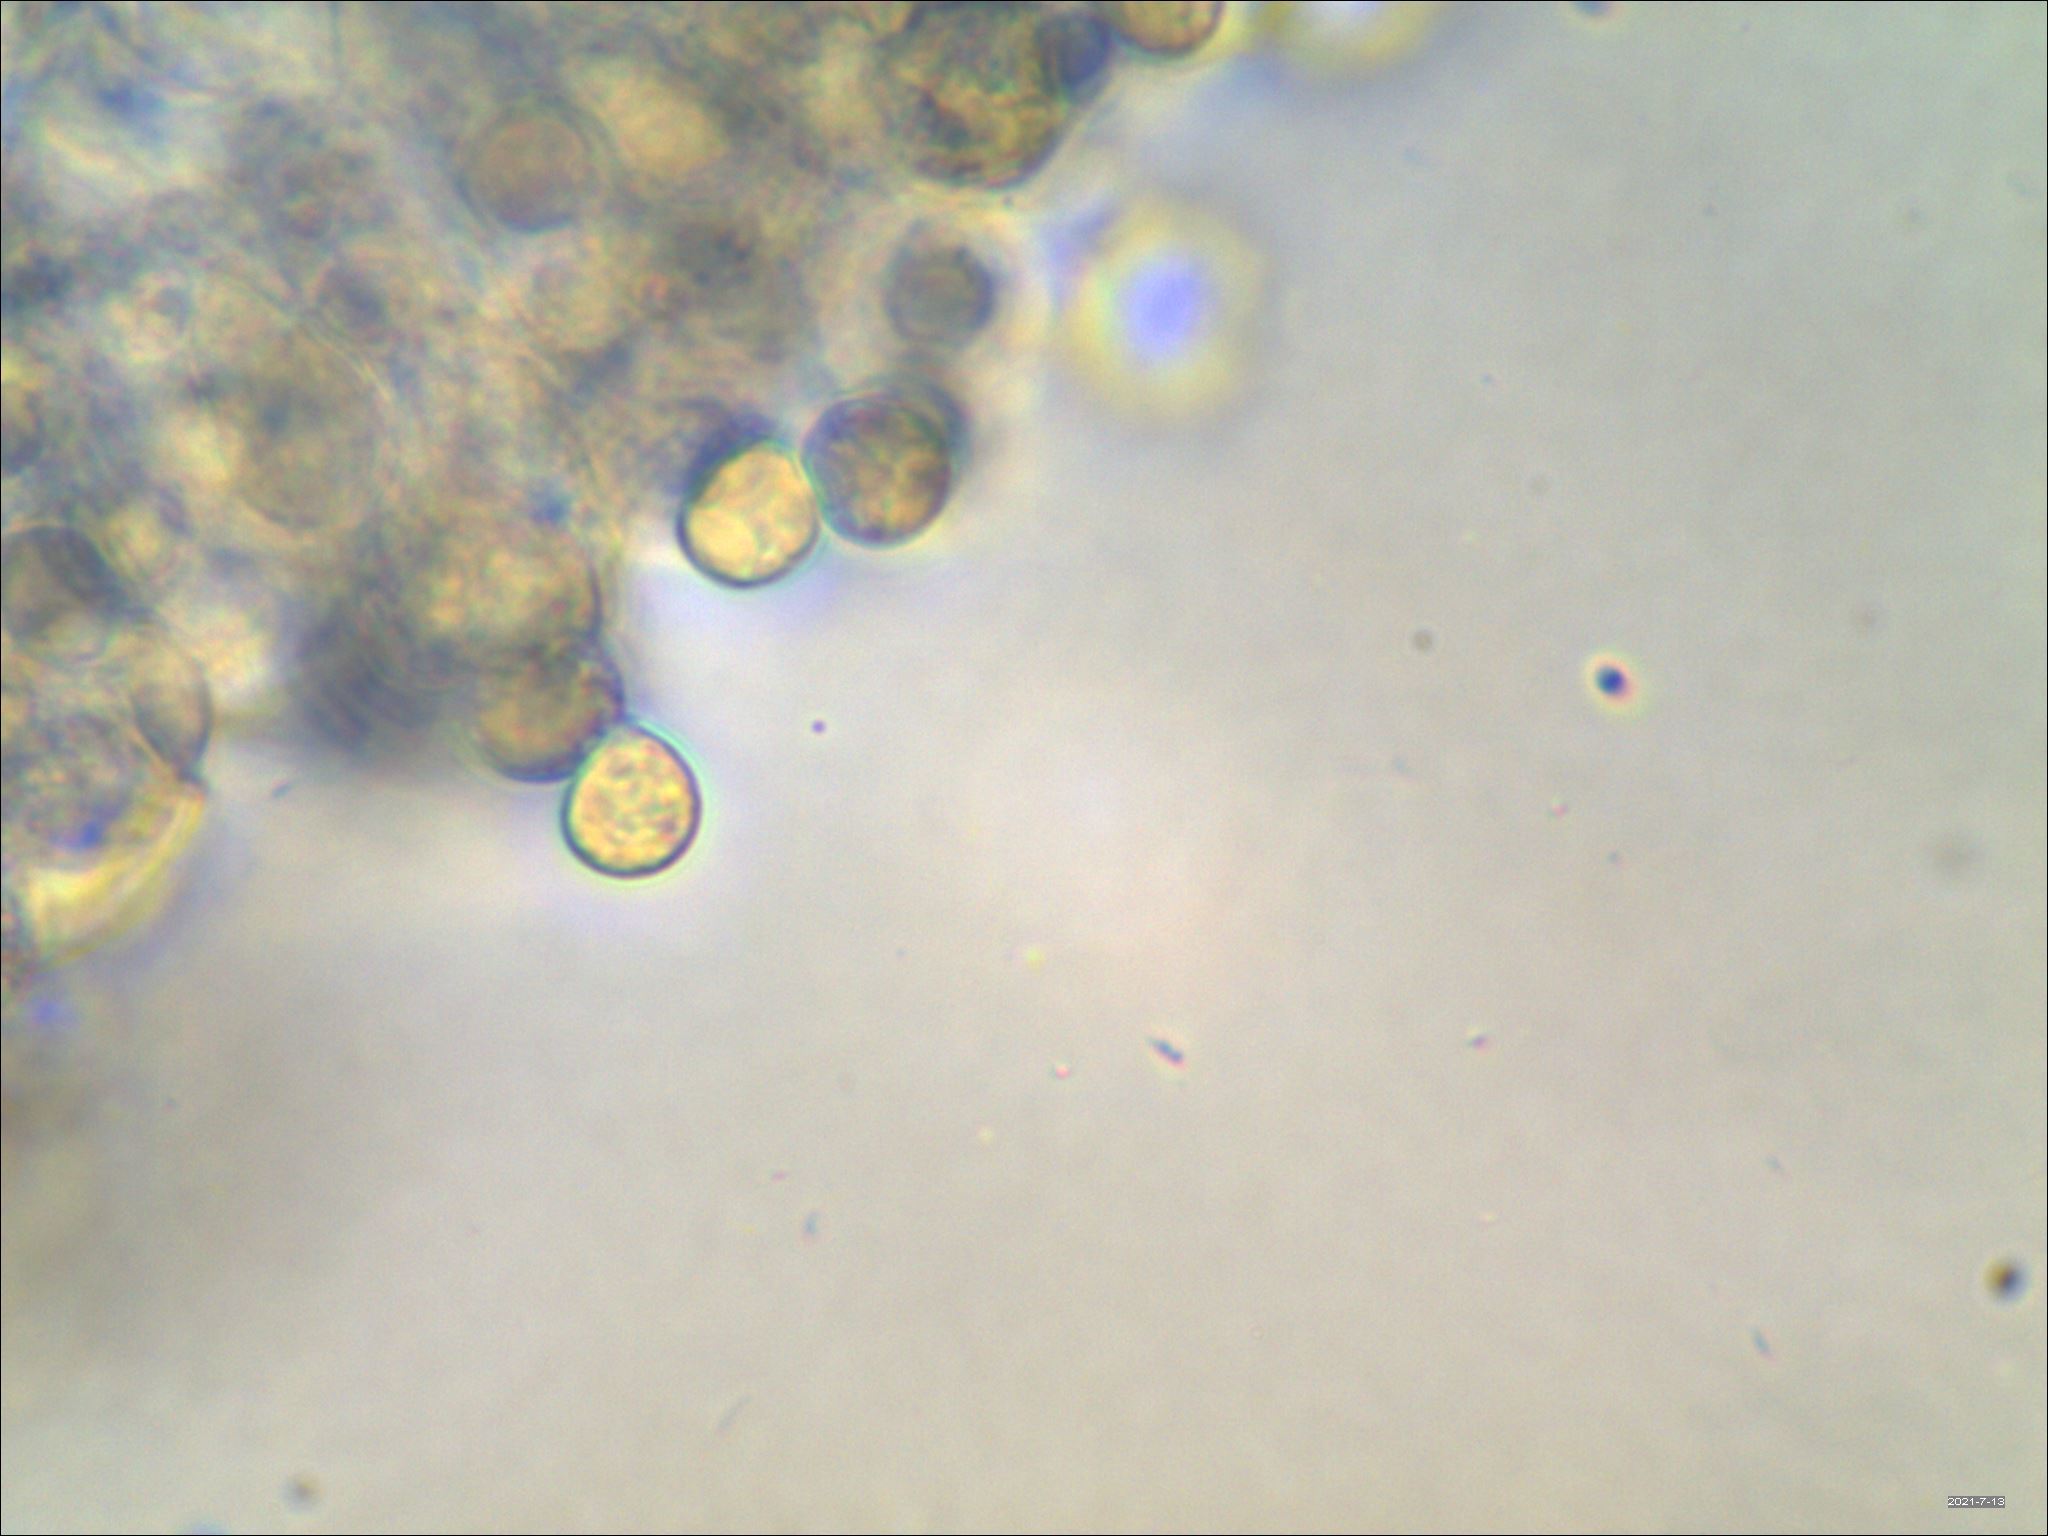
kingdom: Fungi
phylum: Basidiomycota
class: Agaricomycetes
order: Agaricales
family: Amanitaceae
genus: Amanita
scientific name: Amanita citrina
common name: False death-cap
